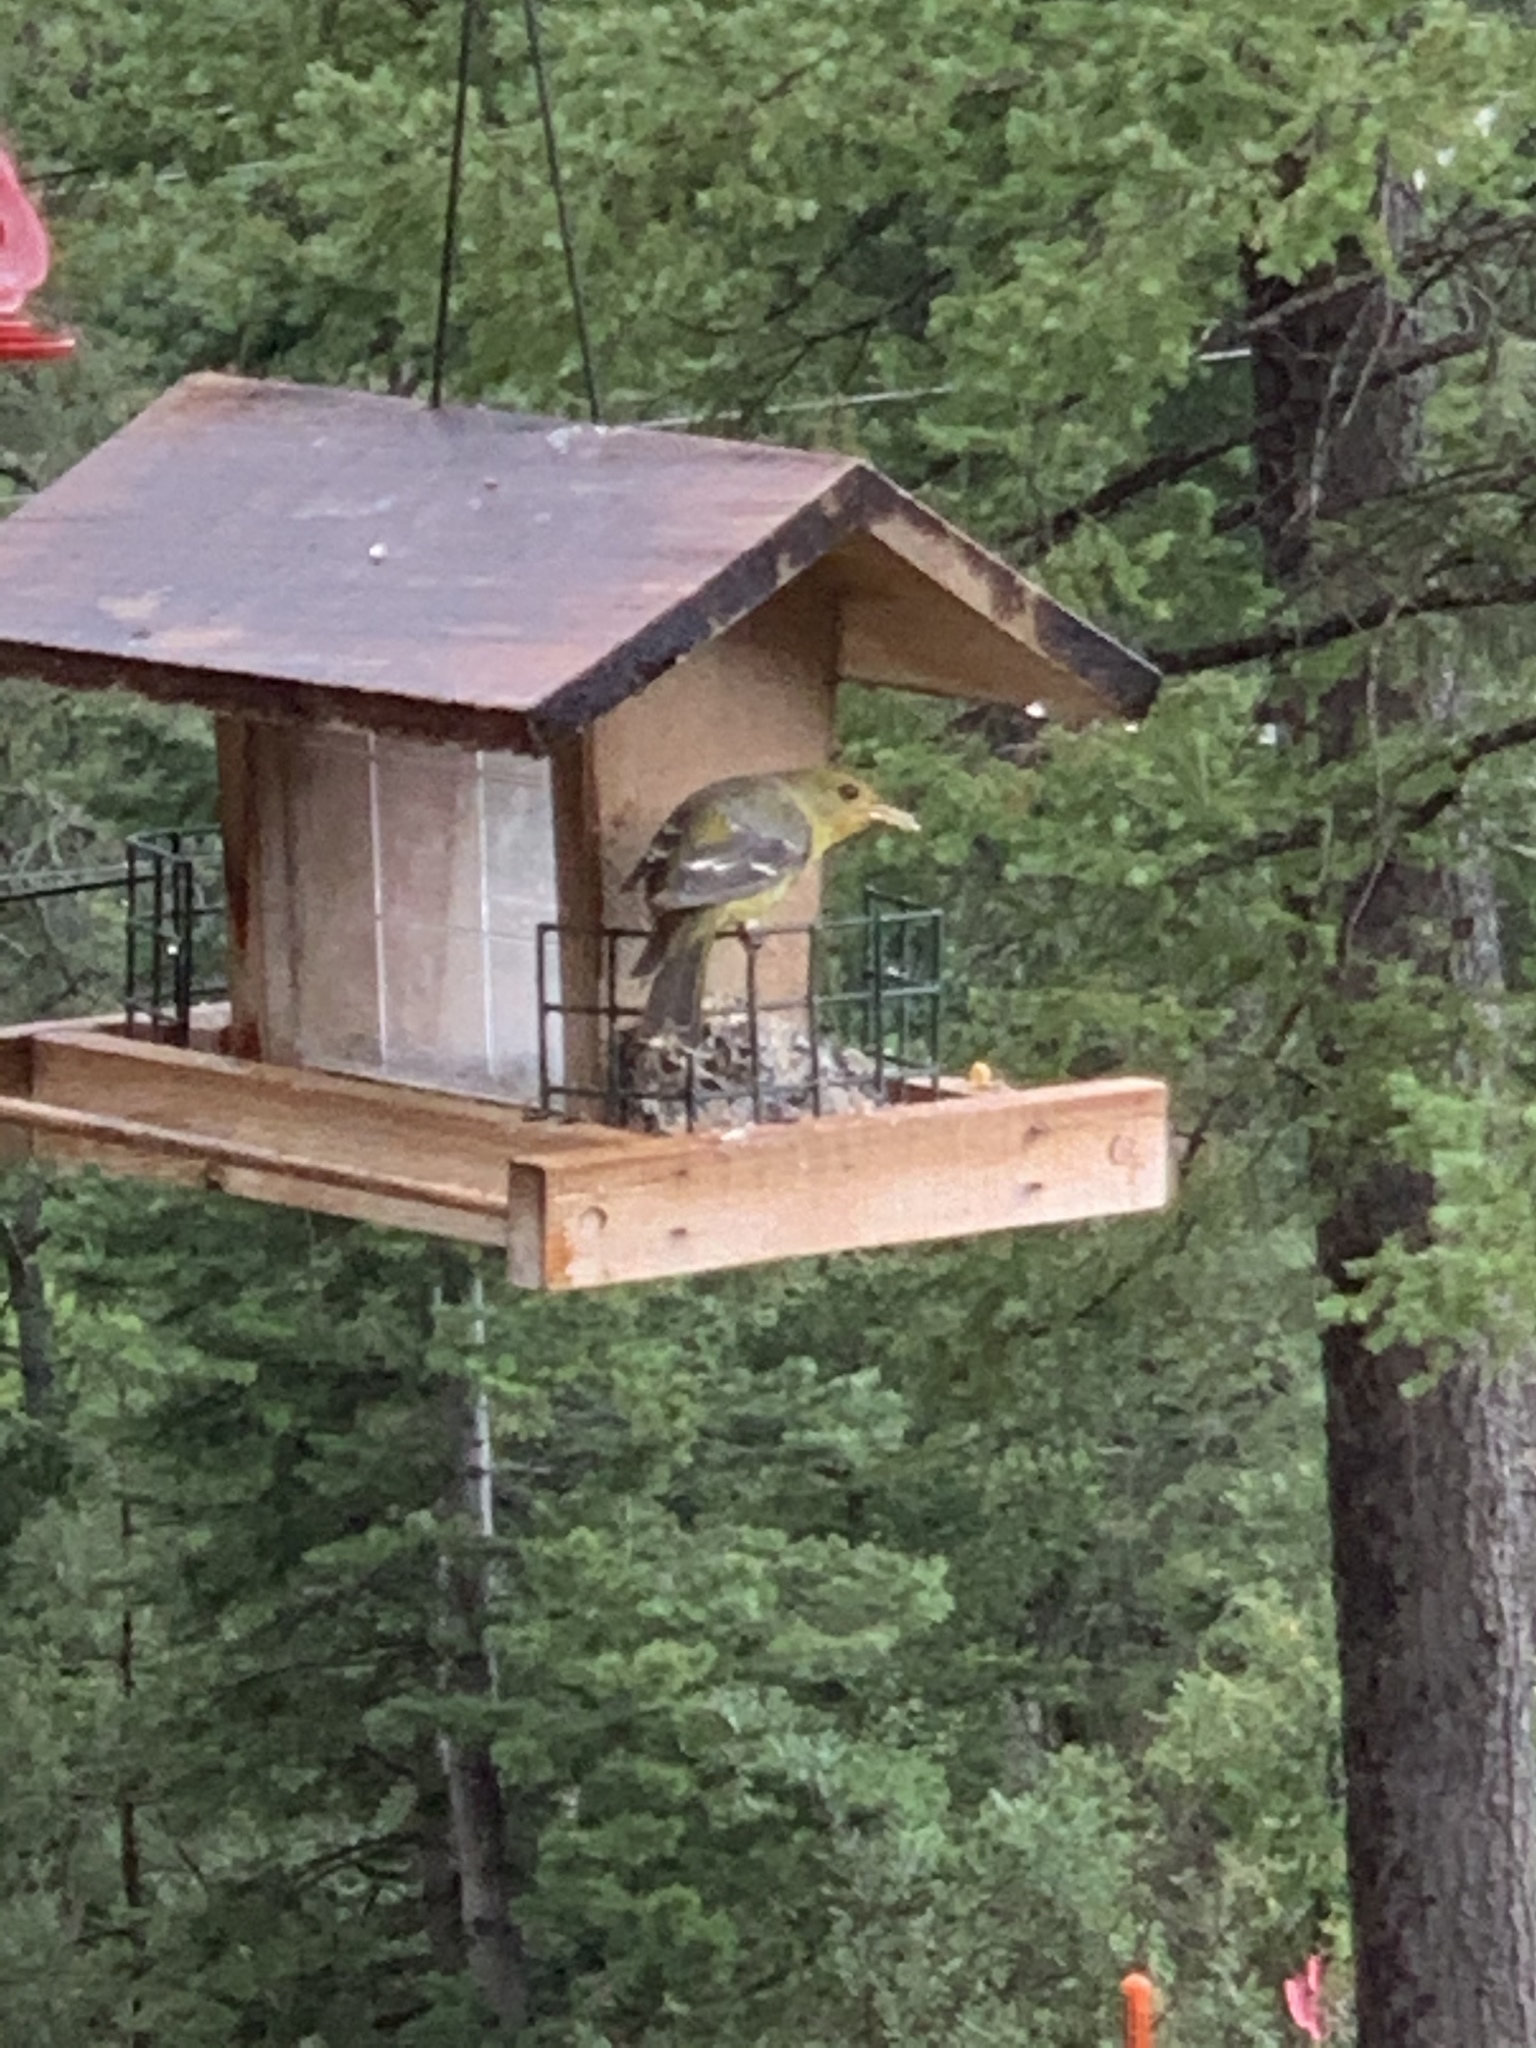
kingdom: Animalia
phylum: Chordata
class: Aves
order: Passeriformes
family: Cardinalidae
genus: Piranga
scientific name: Piranga ludoviciana
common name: Western tanager
